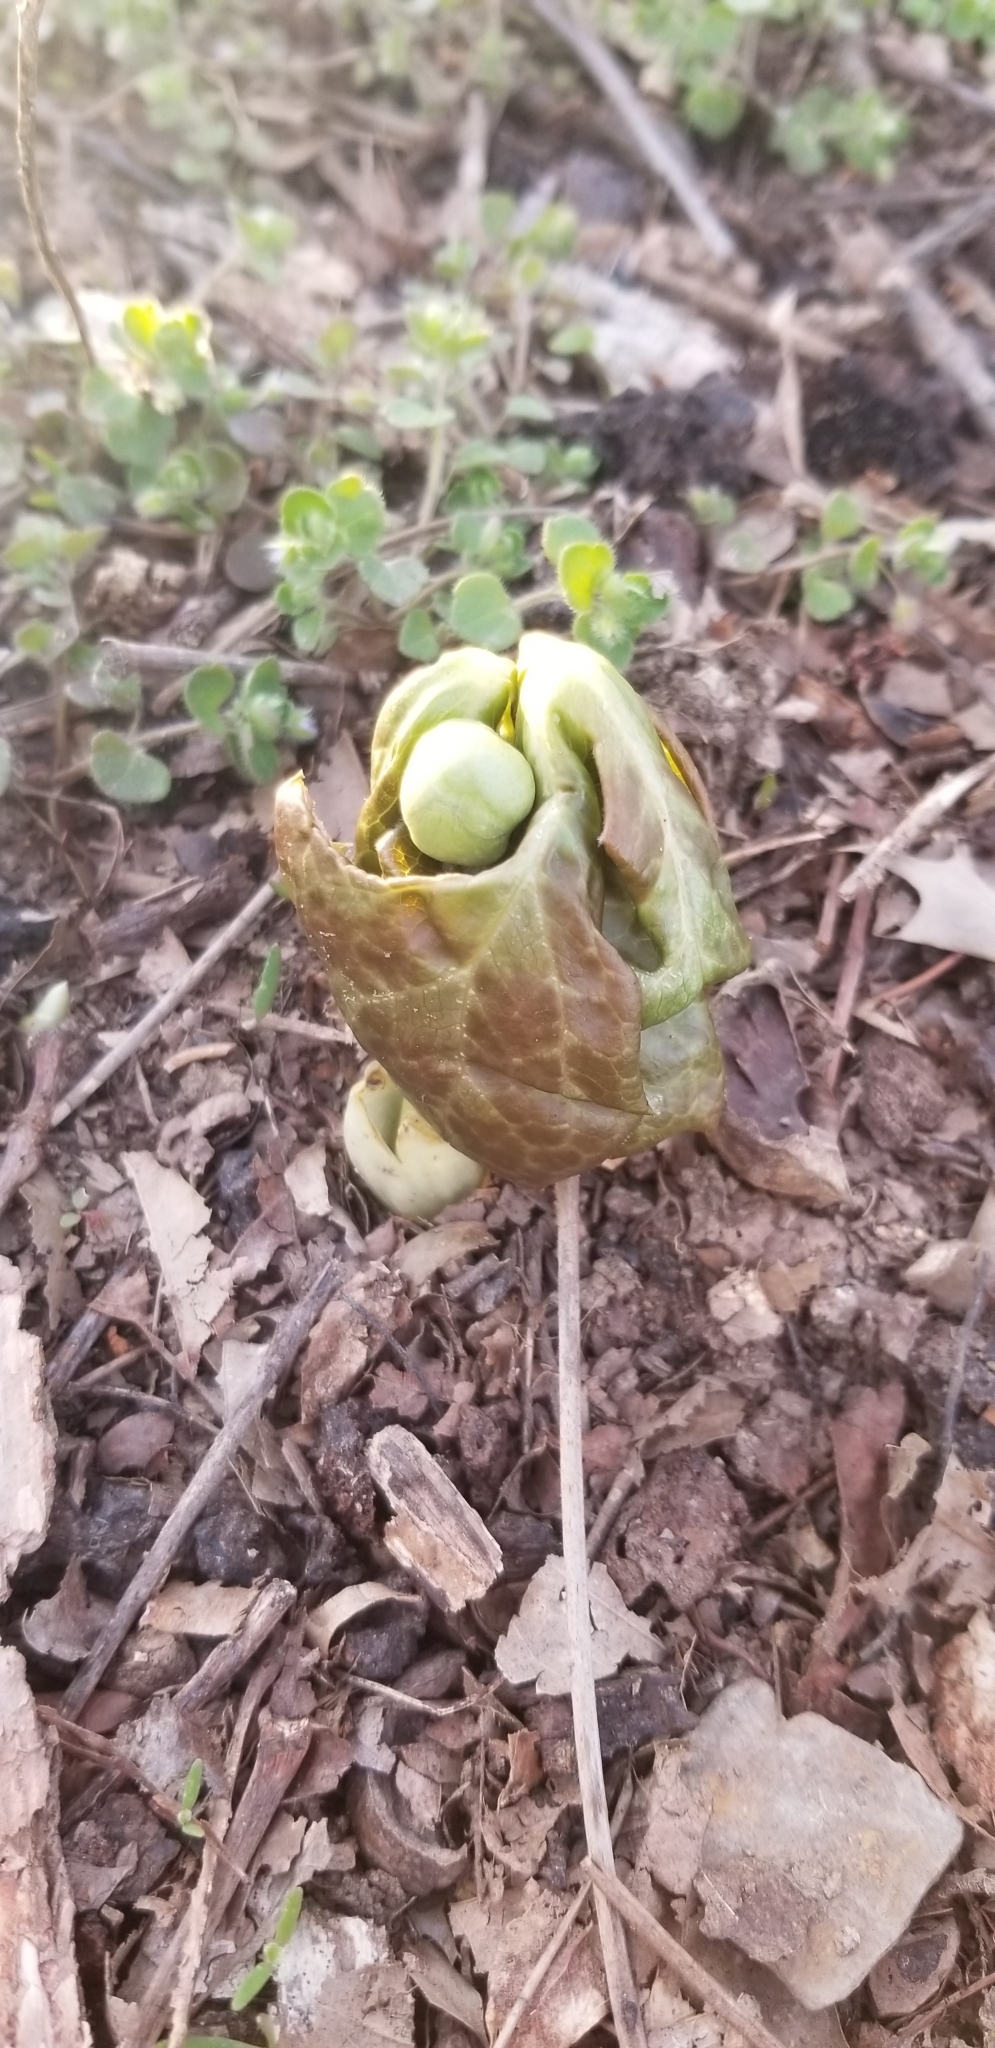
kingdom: Plantae
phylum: Tracheophyta
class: Magnoliopsida
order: Ranunculales
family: Berberidaceae
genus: Podophyllum
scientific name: Podophyllum peltatum
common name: Wild mandrake
